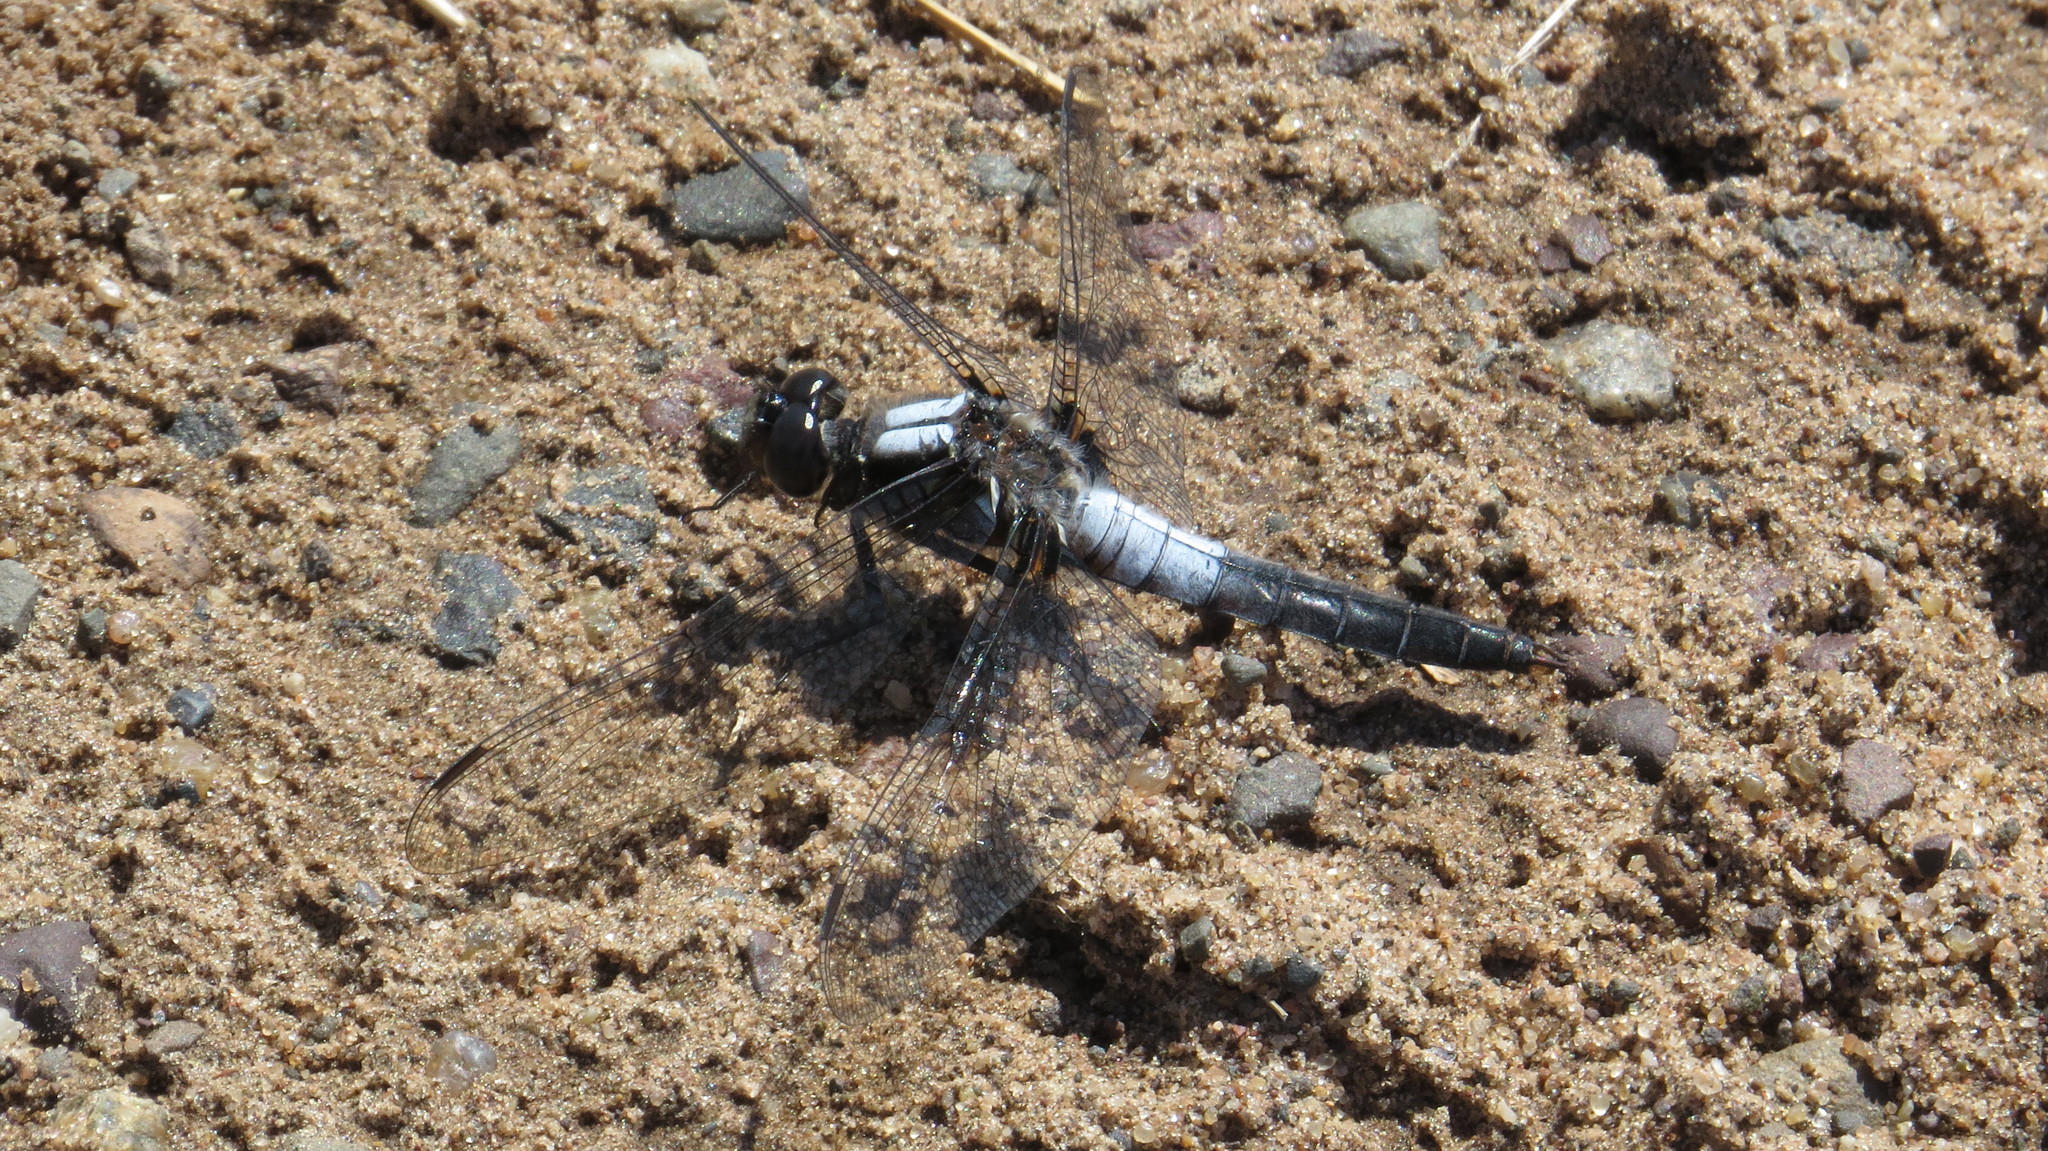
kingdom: Animalia
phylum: Arthropoda
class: Insecta
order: Odonata
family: Libellulidae
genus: Ladona
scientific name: Ladona julia
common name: Chalk-fronted corporal
